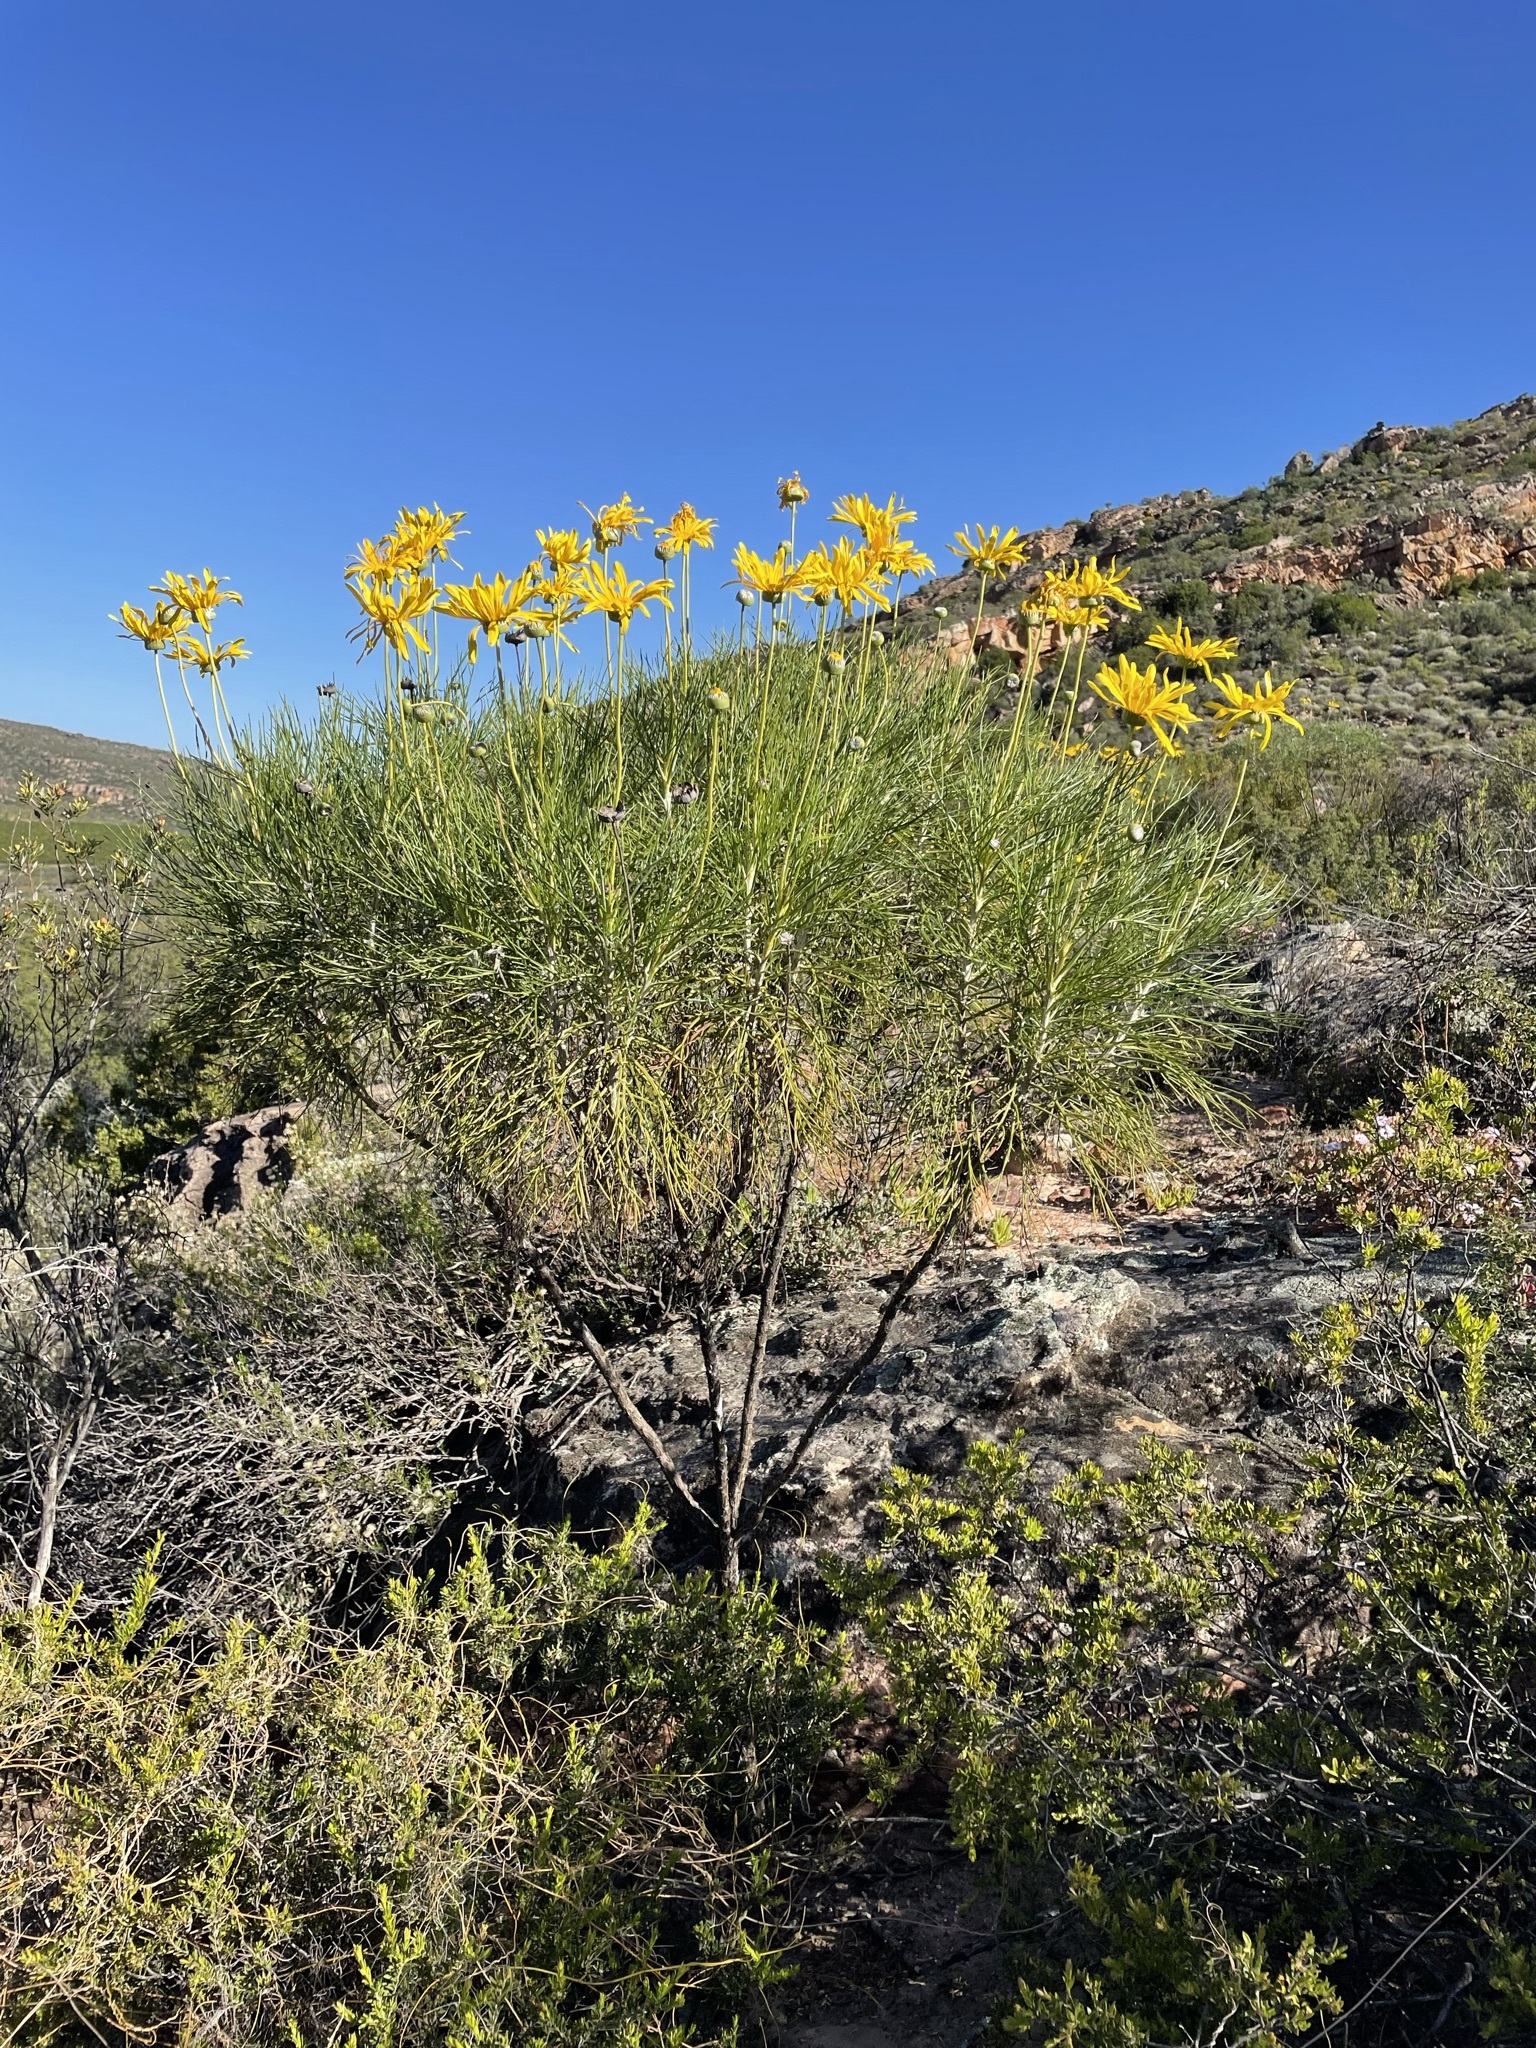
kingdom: Plantae
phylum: Tracheophyta
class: Magnoliopsida
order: Asterales
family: Asteraceae
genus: Euryops
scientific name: Euryops speciosissimus
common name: Clanwilliam daisy
